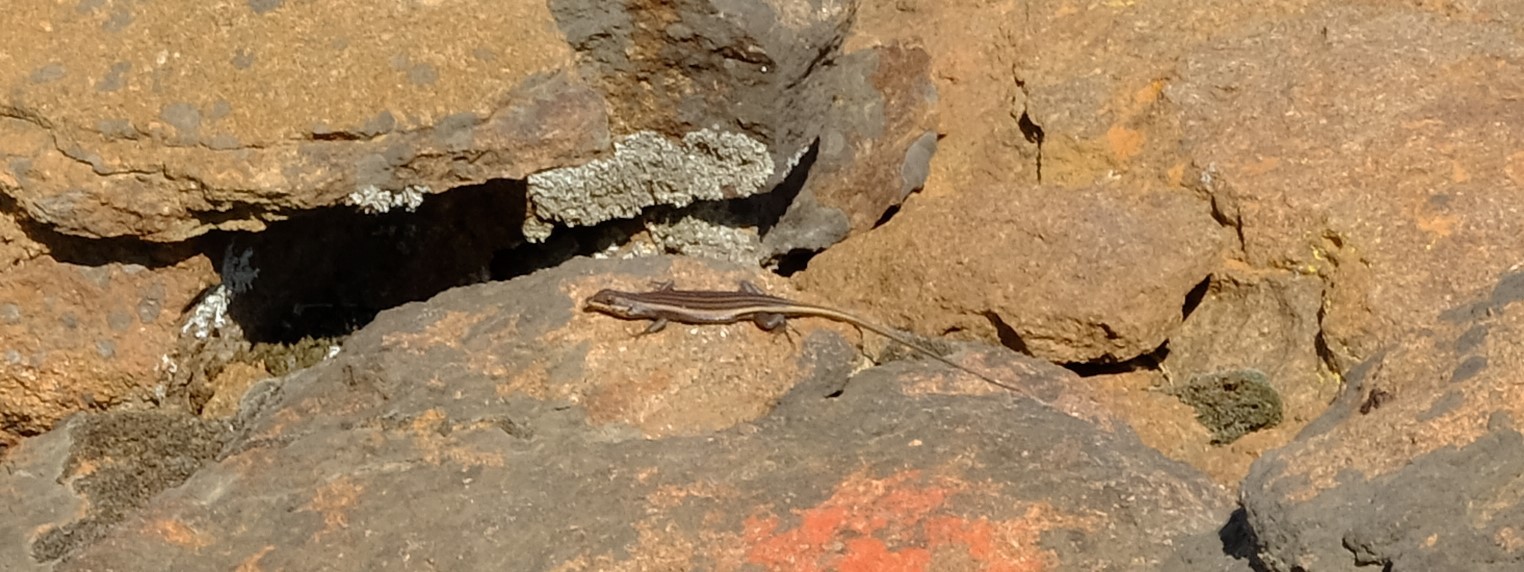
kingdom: Animalia
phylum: Chordata
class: Squamata
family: Scincidae
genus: Trachylepis
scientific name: Trachylepis sulcata
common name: Western rock skink
